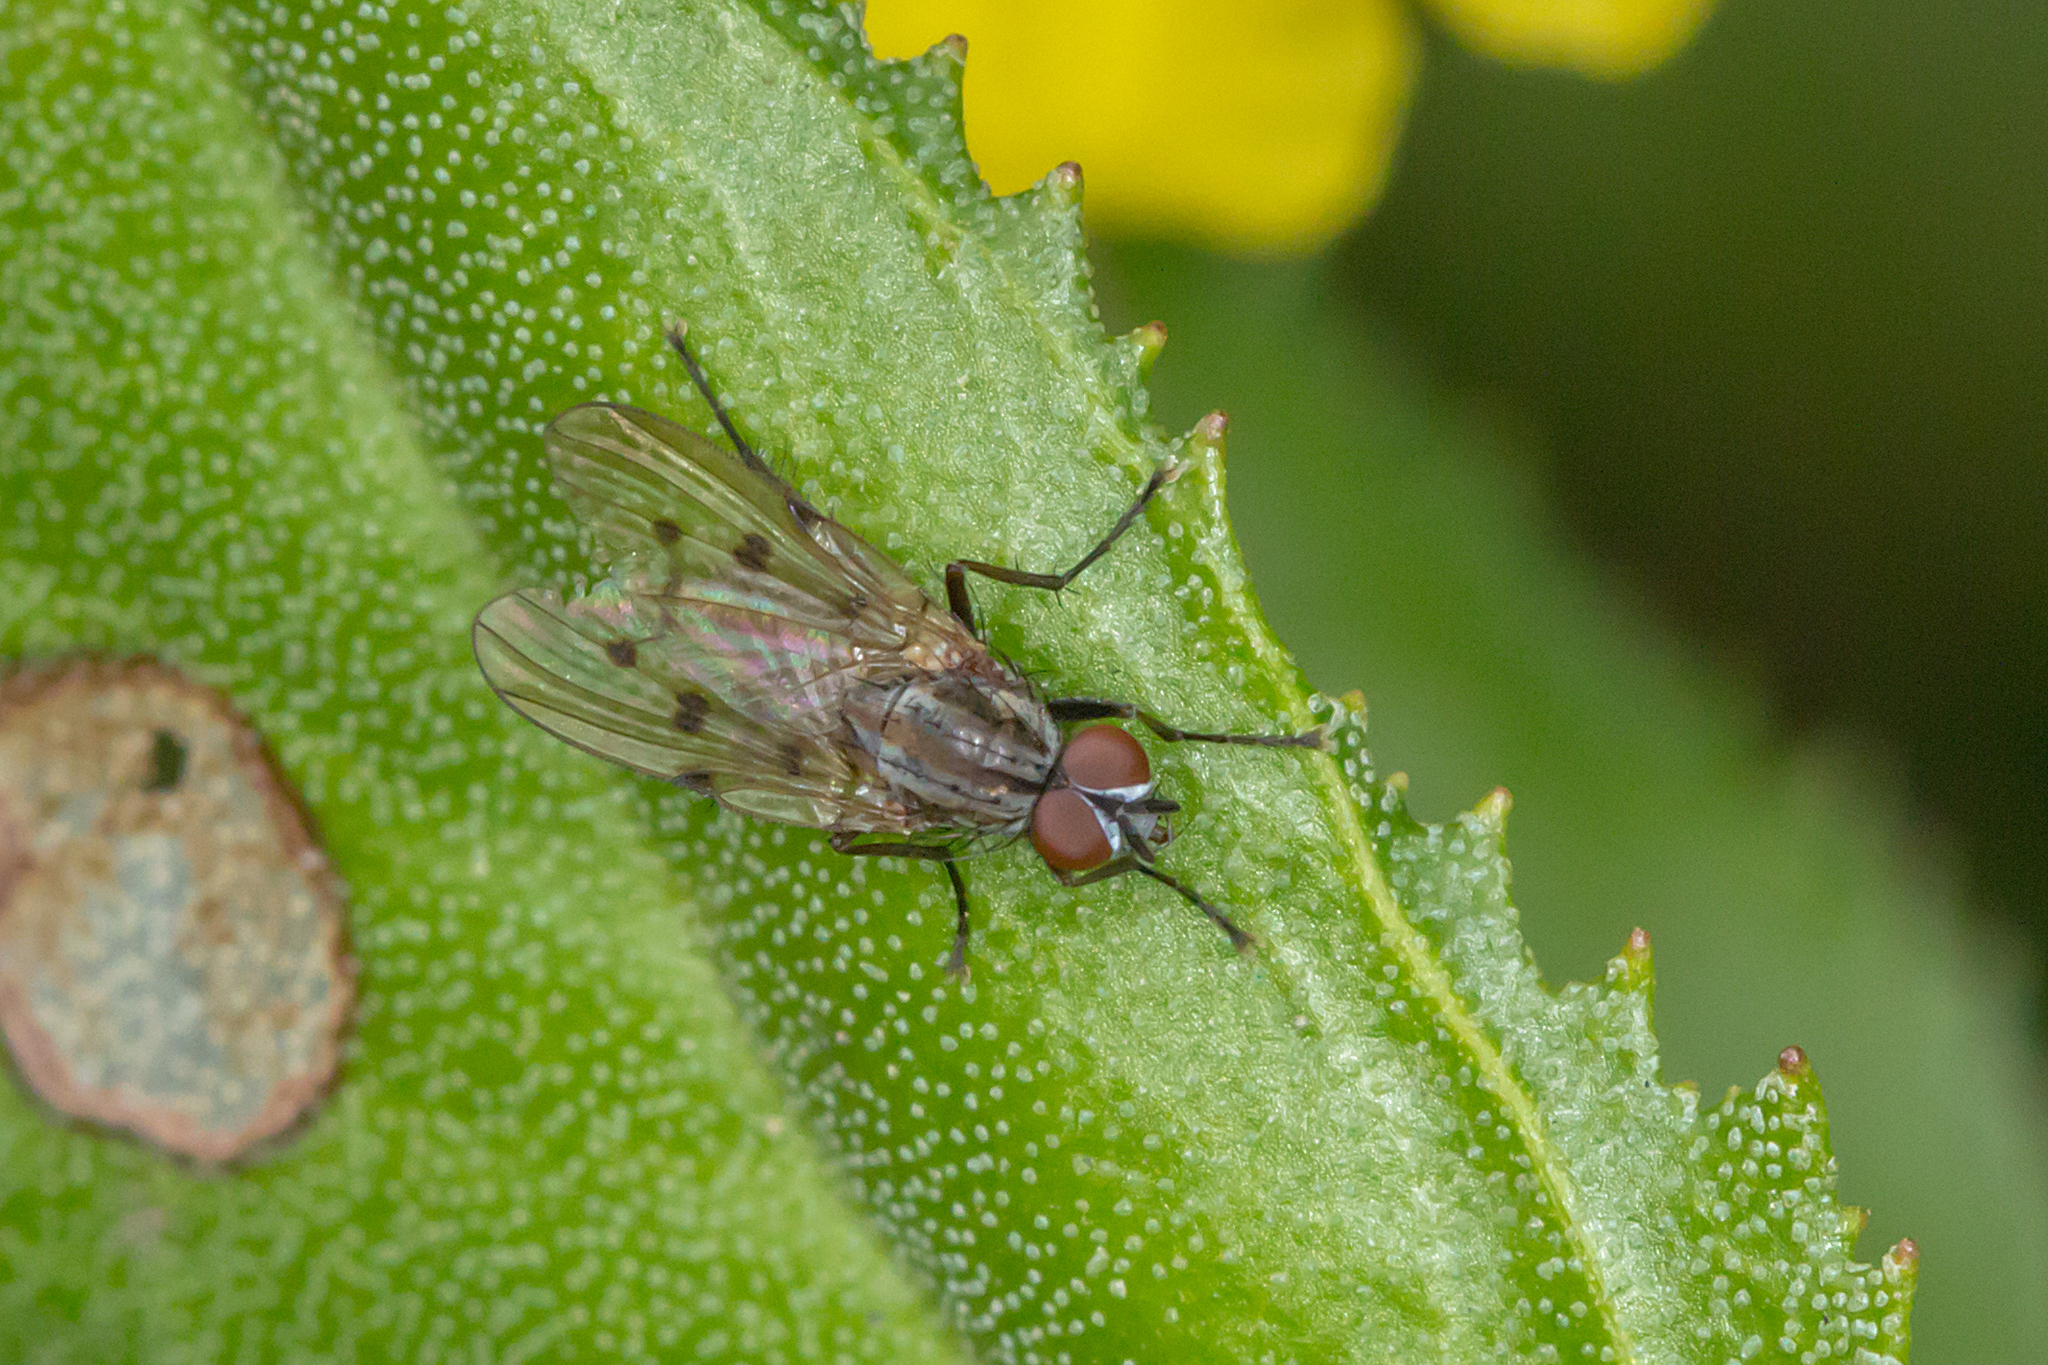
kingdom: Animalia
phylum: Arthropoda
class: Insecta
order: Diptera
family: Anthomyiidae
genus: Anthomyia
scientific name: Anthomyia punctipennis
